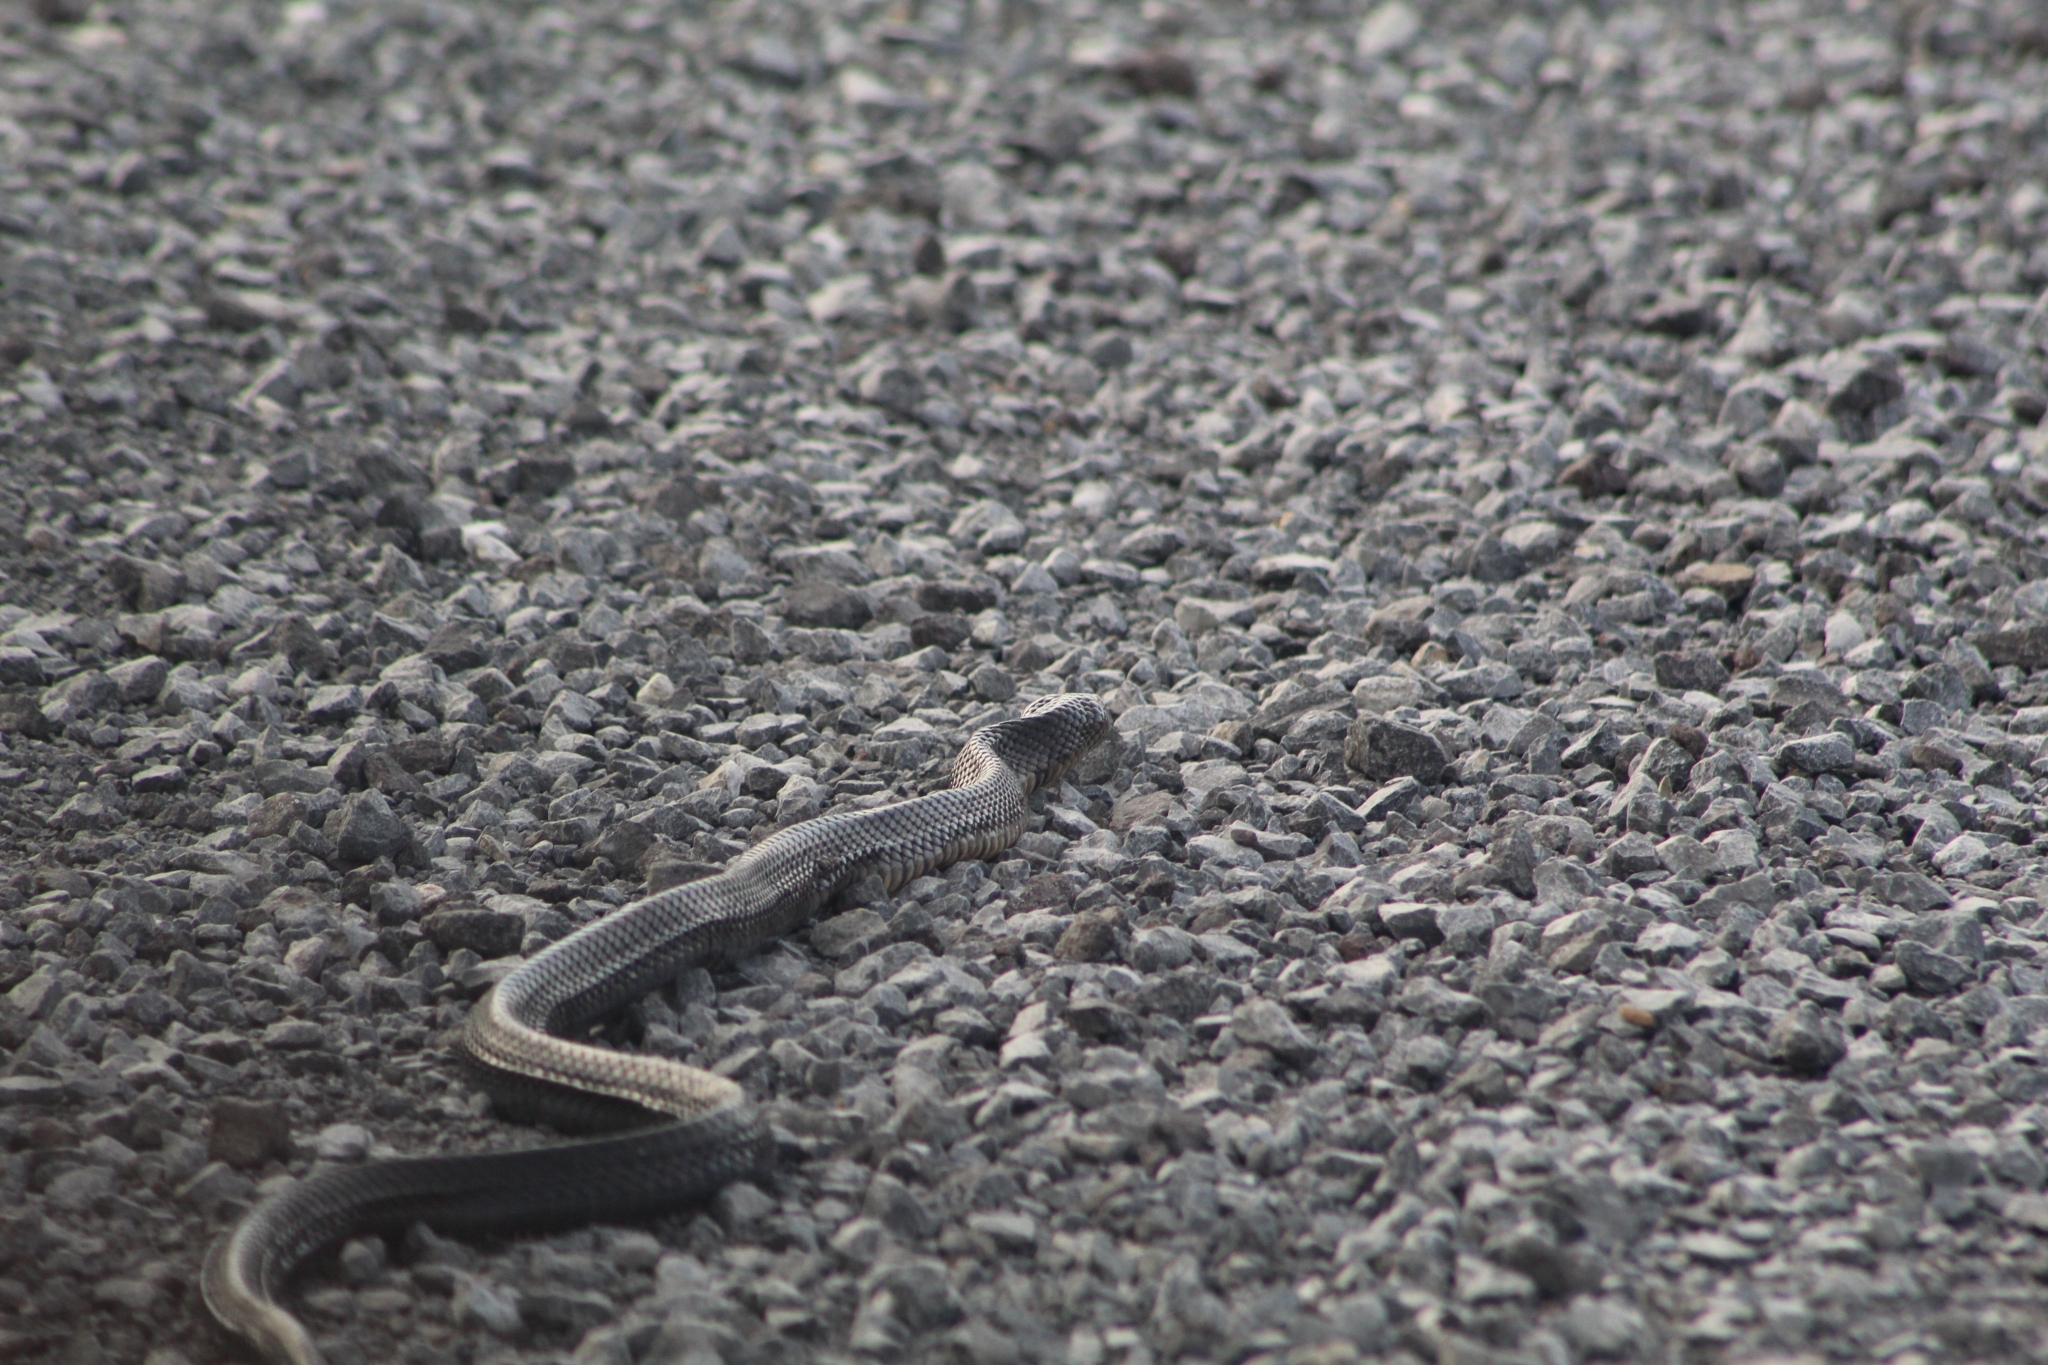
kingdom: Animalia
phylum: Chordata
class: Squamata
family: Colubridae
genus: Drymarchon
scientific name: Drymarchon melanurus
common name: Central american indigo snake
